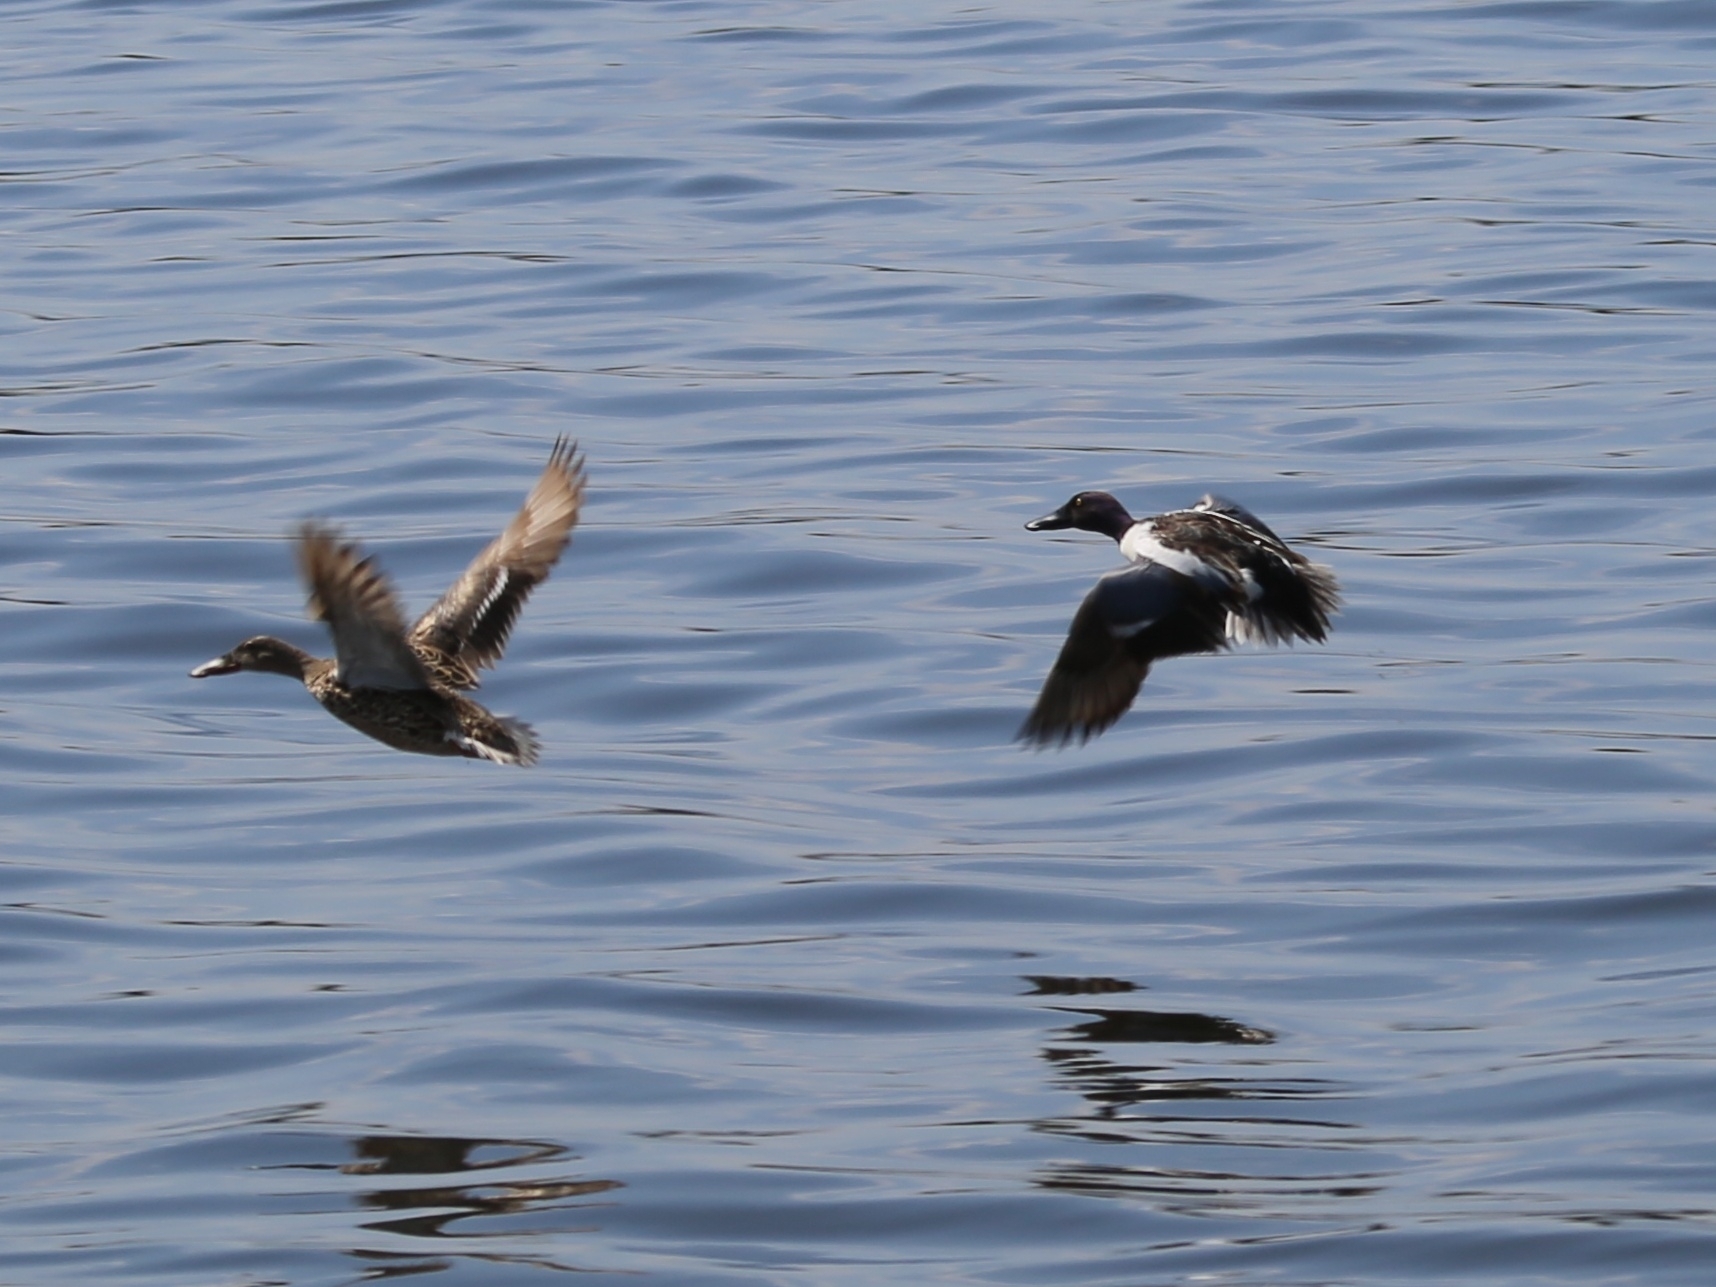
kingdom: Animalia
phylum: Chordata
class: Aves
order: Anseriformes
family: Anatidae
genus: Spatula
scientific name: Spatula clypeata
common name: Northern shoveler
